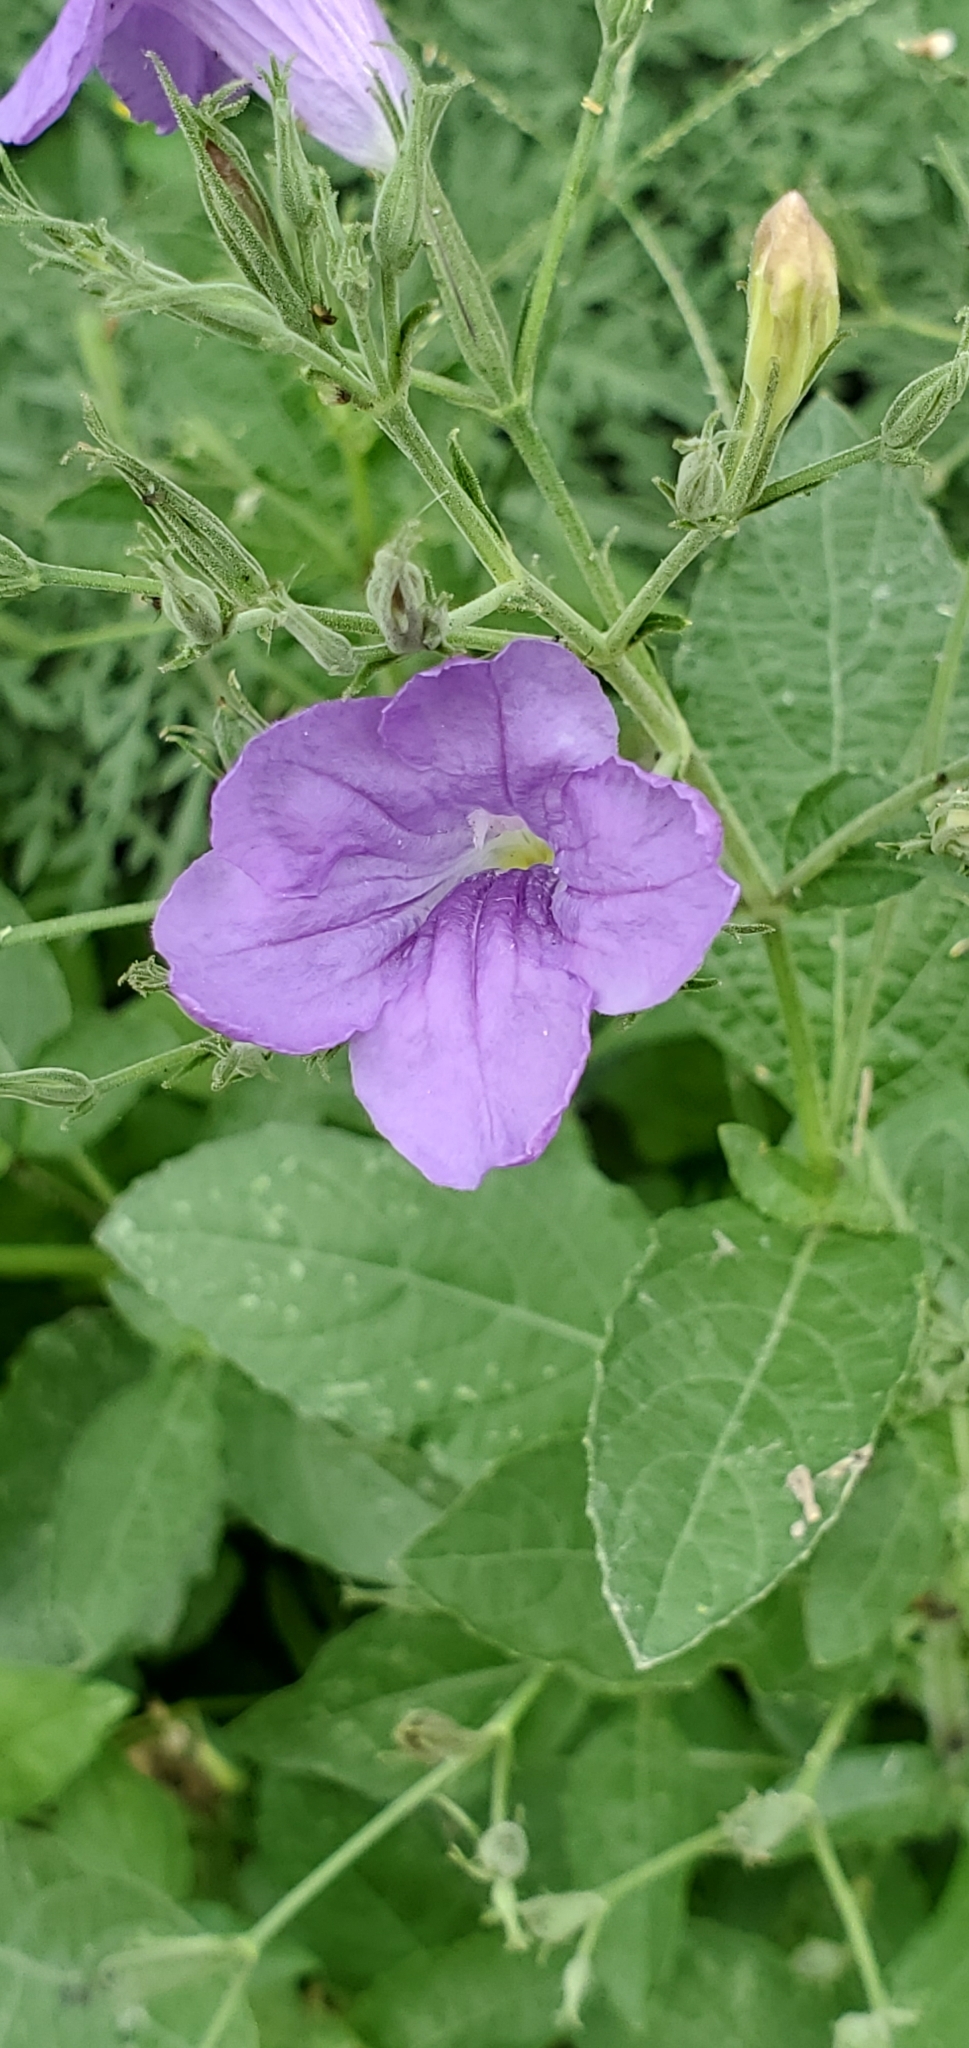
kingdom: Plantae
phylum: Tracheophyta
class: Magnoliopsida
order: Lamiales
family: Acanthaceae
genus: Ruellia
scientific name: Ruellia ciliatiflora
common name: Hairyflower wild petunia
